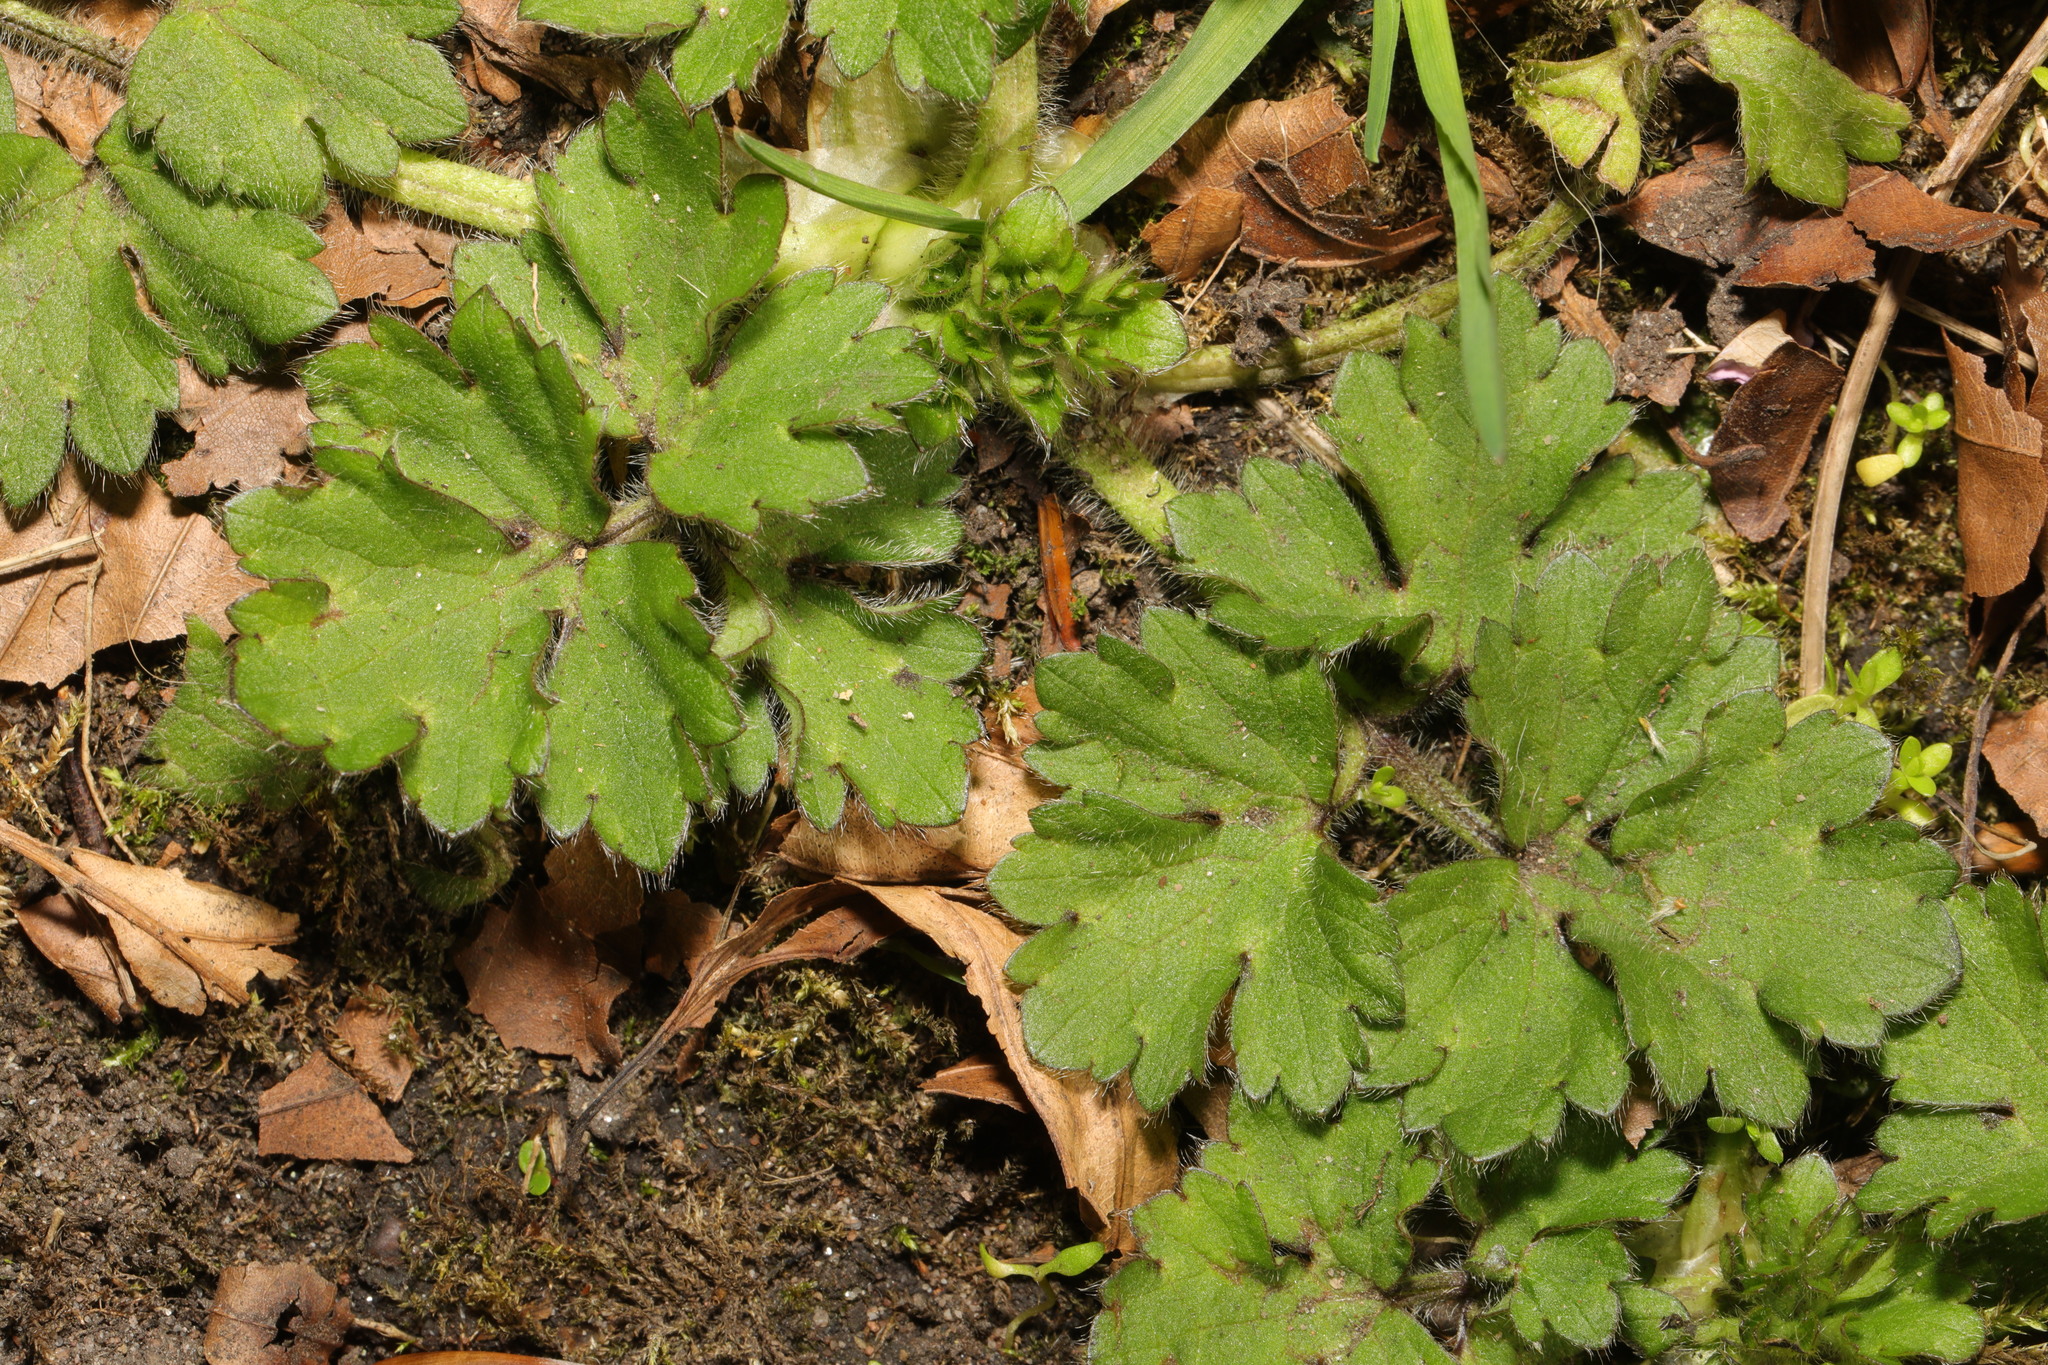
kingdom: Plantae
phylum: Tracheophyta
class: Magnoliopsida
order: Ranunculales
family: Ranunculaceae
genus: Ranunculus
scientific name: Ranunculus repens
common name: Creeping buttercup
